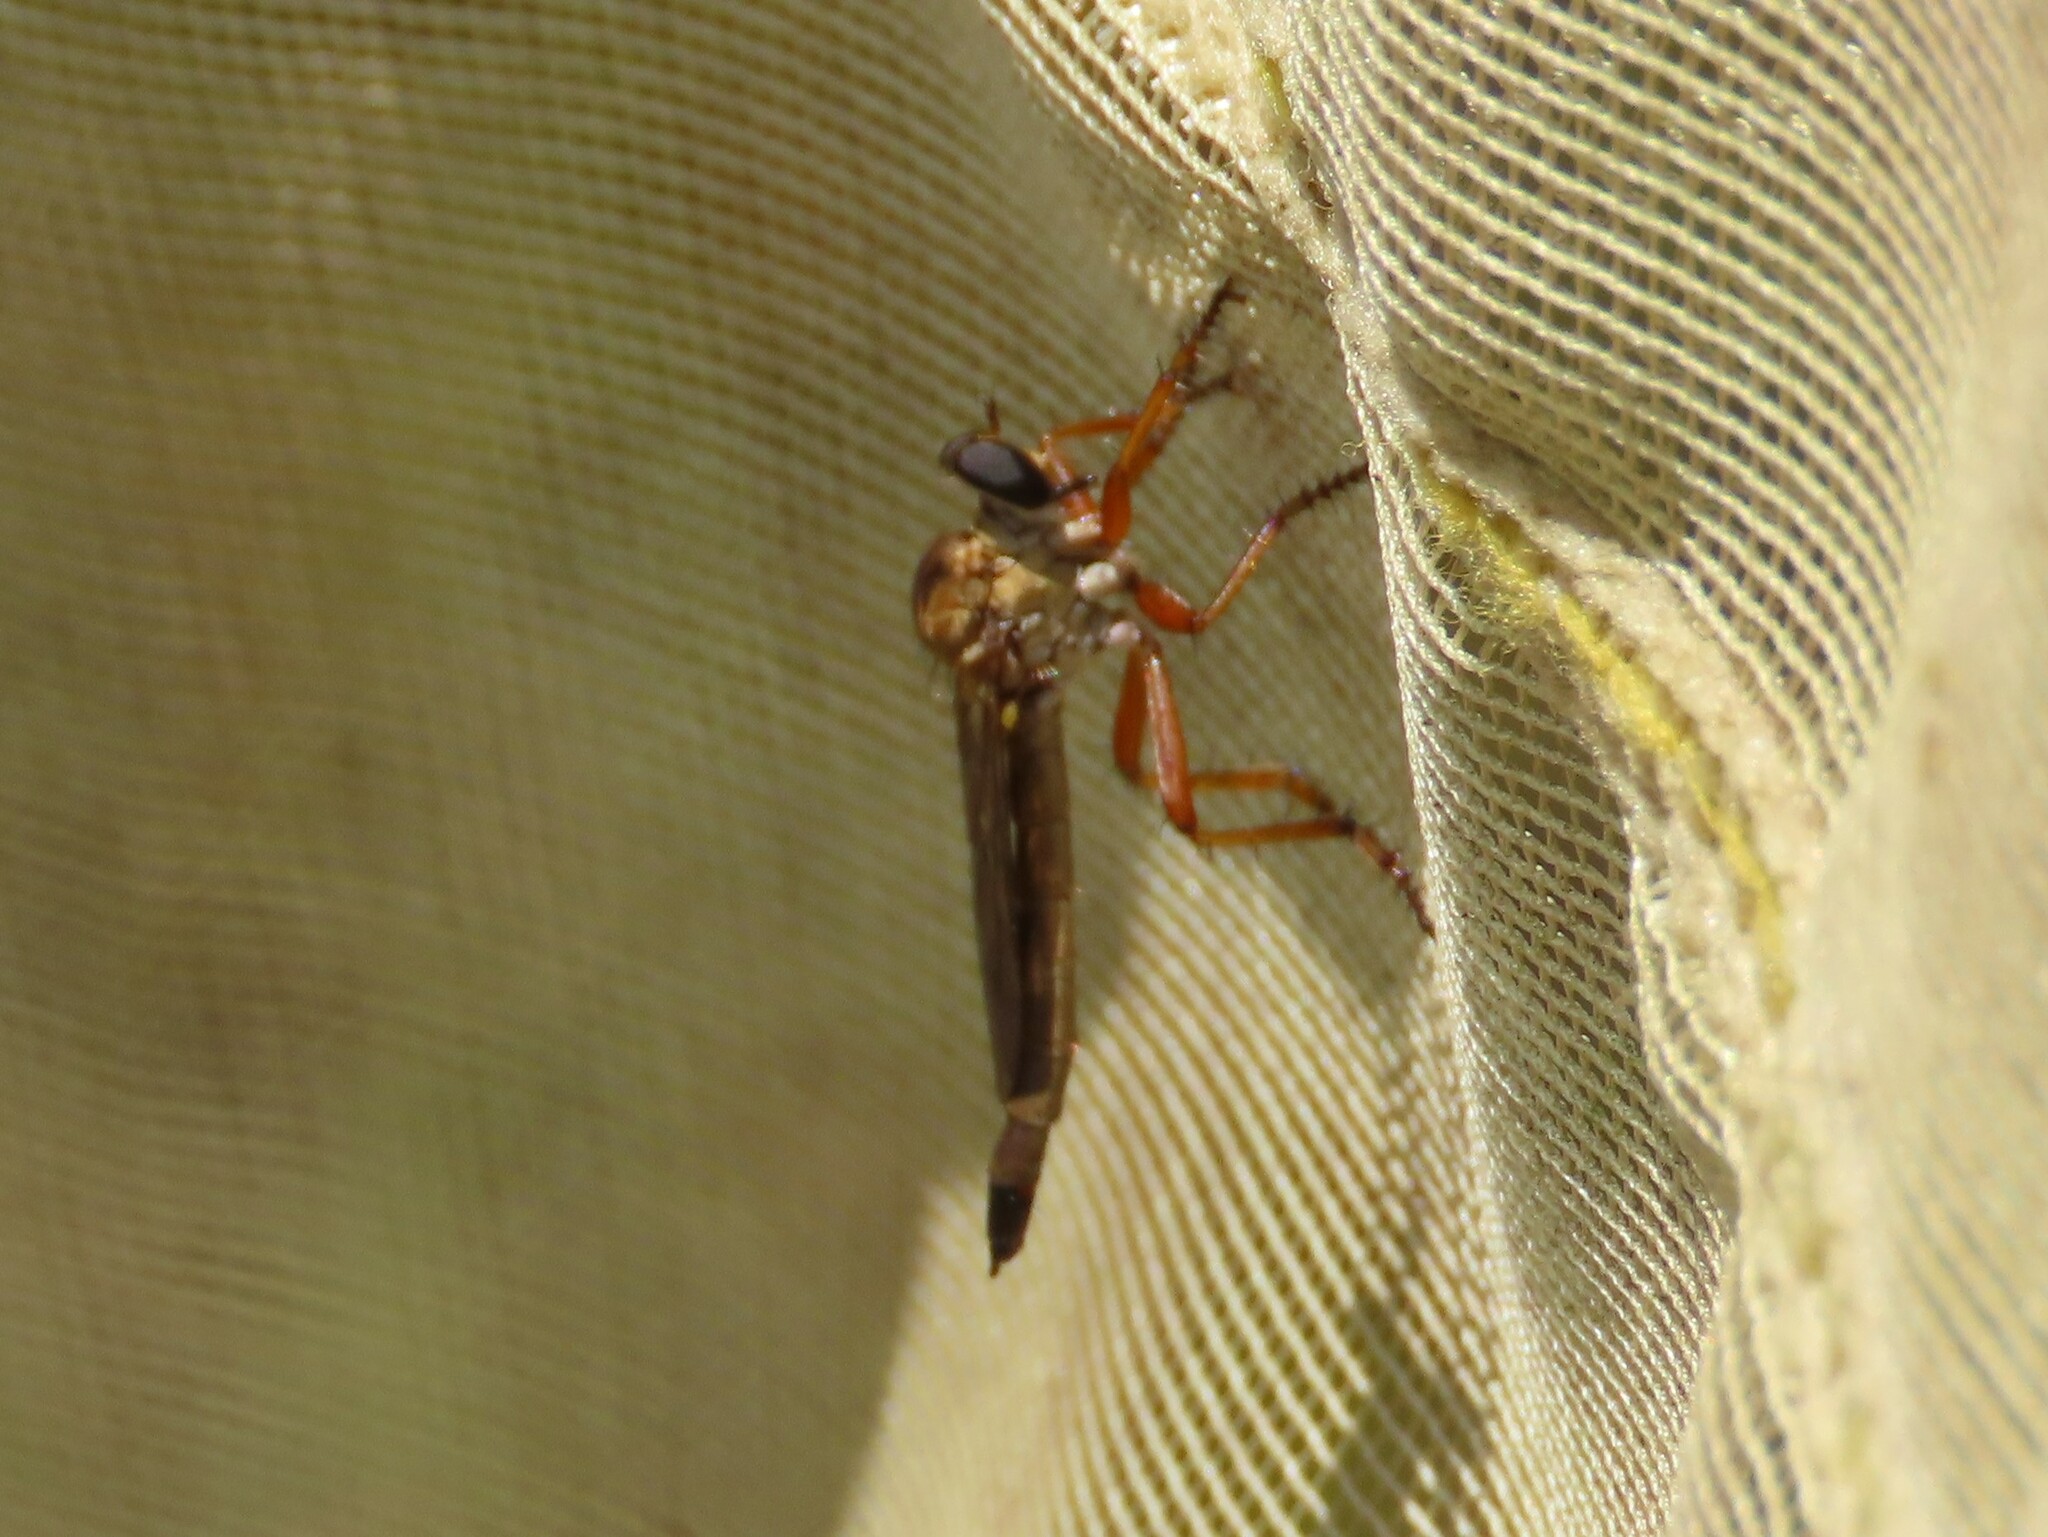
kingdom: Animalia
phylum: Arthropoda
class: Insecta
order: Diptera
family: Asilidae
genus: Polacantha
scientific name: Polacantha gracilis
